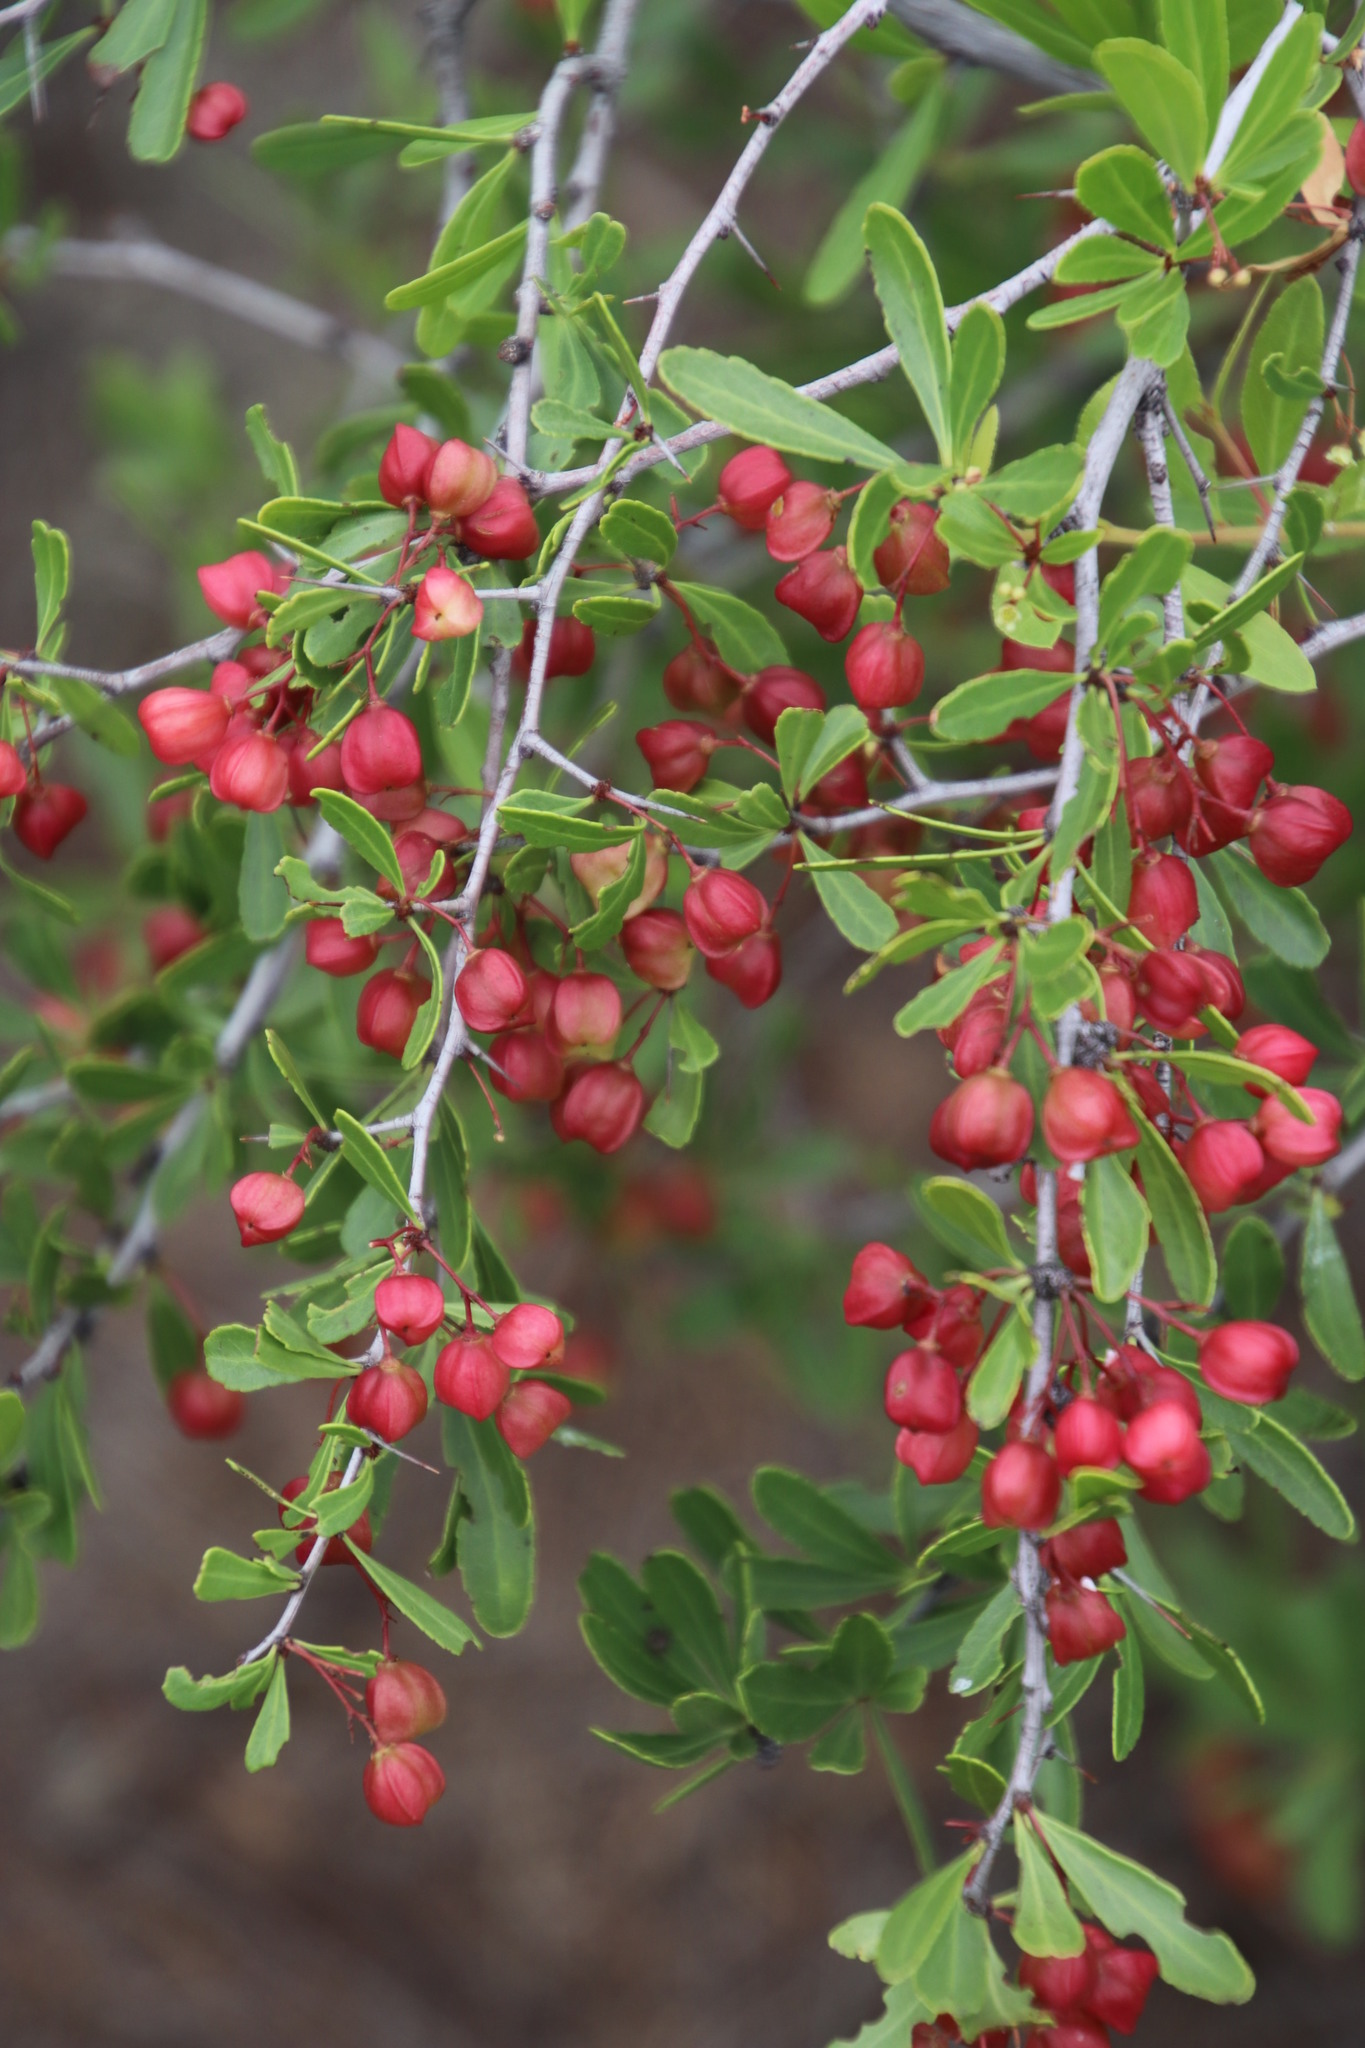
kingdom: Plantae
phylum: Tracheophyta
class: Magnoliopsida
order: Celastrales
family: Celastraceae
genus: Gymnosporia
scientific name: Gymnosporia tenuispina
